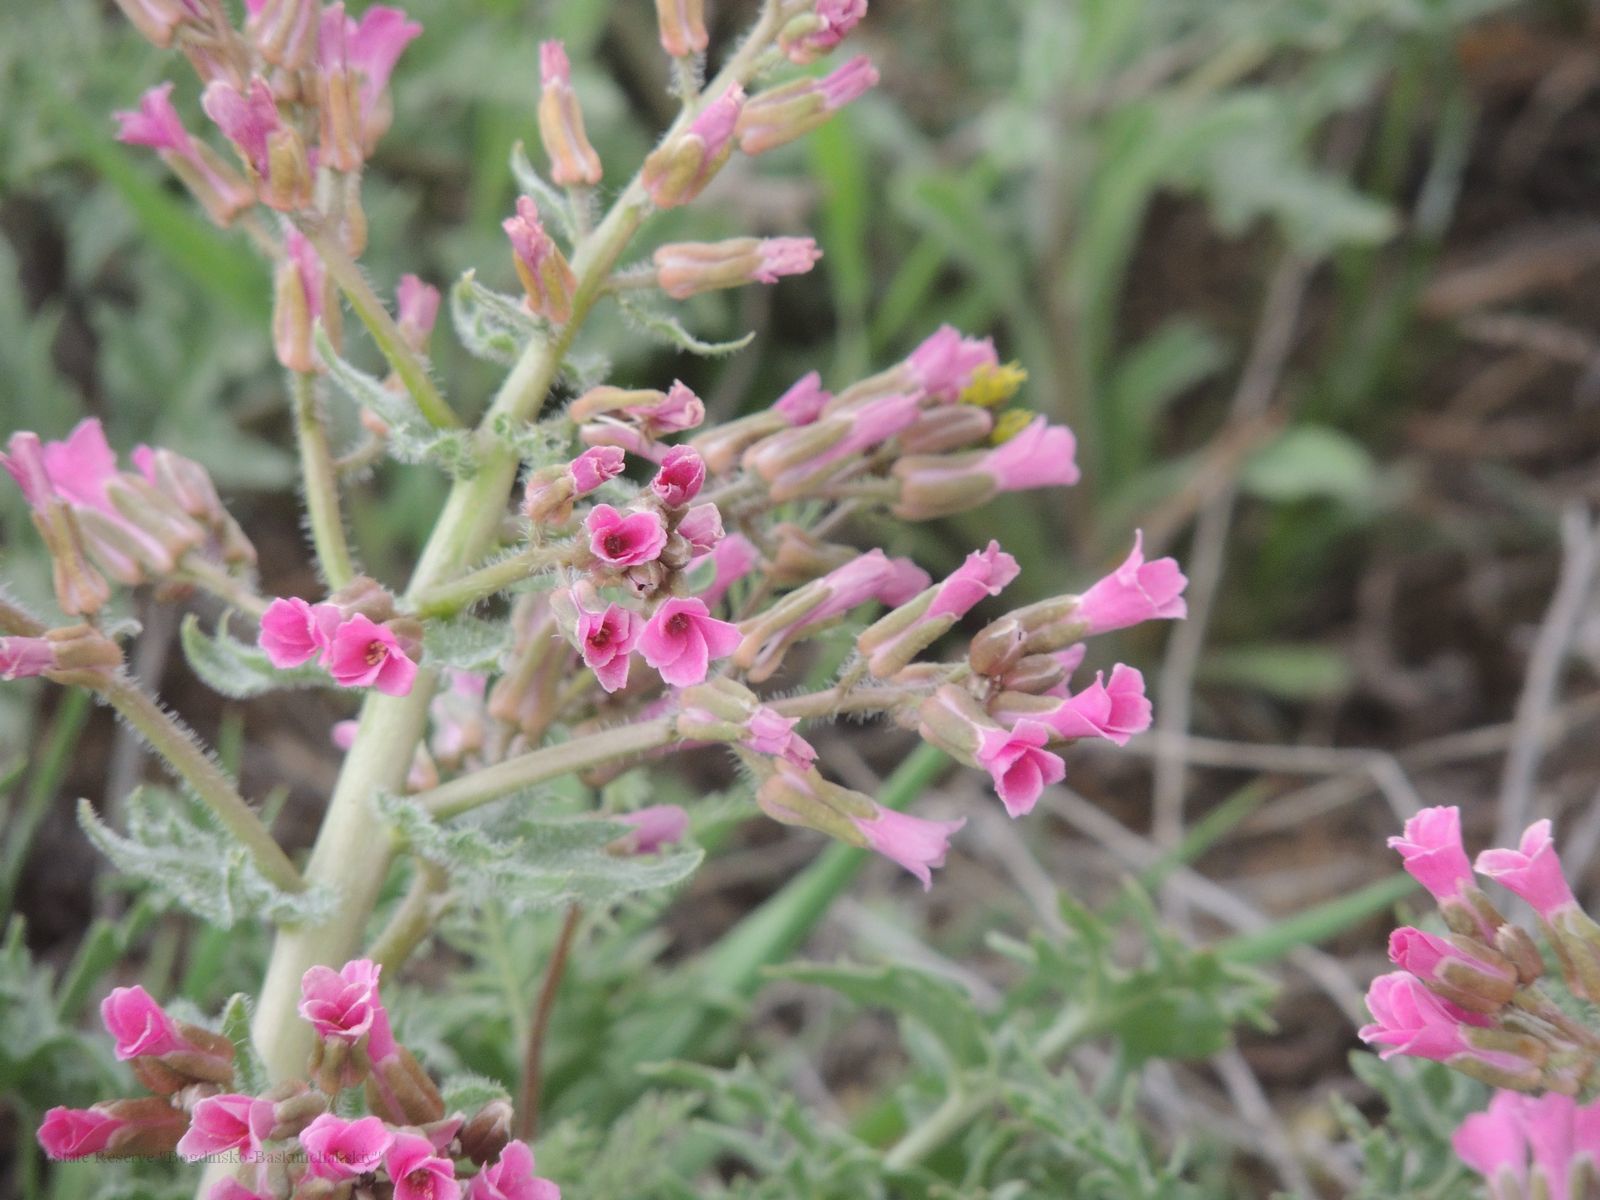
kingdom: Plantae
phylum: Tracheophyta
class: Magnoliopsida
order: Brassicales
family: Brassicaceae
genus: Megacarpaea
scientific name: Megacarpaea megalocarpa
